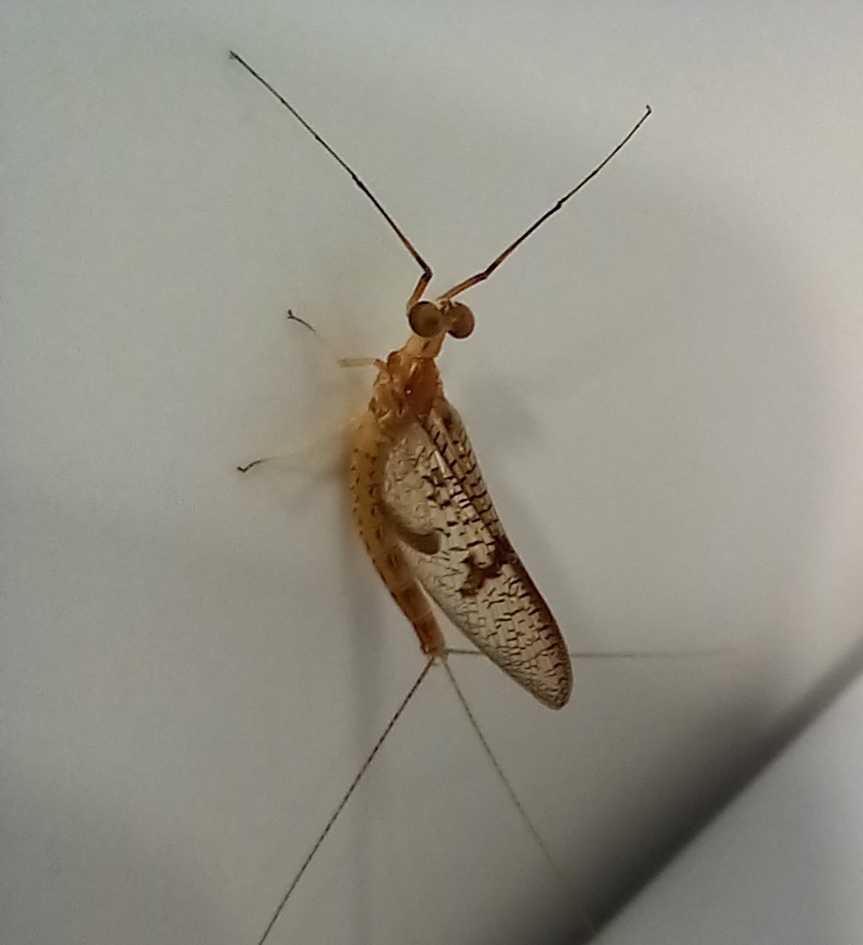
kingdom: Animalia
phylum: Arthropoda
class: Insecta
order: Ephemeroptera
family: Ephemeridae
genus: Ephemera
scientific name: Ephemera glaucops
